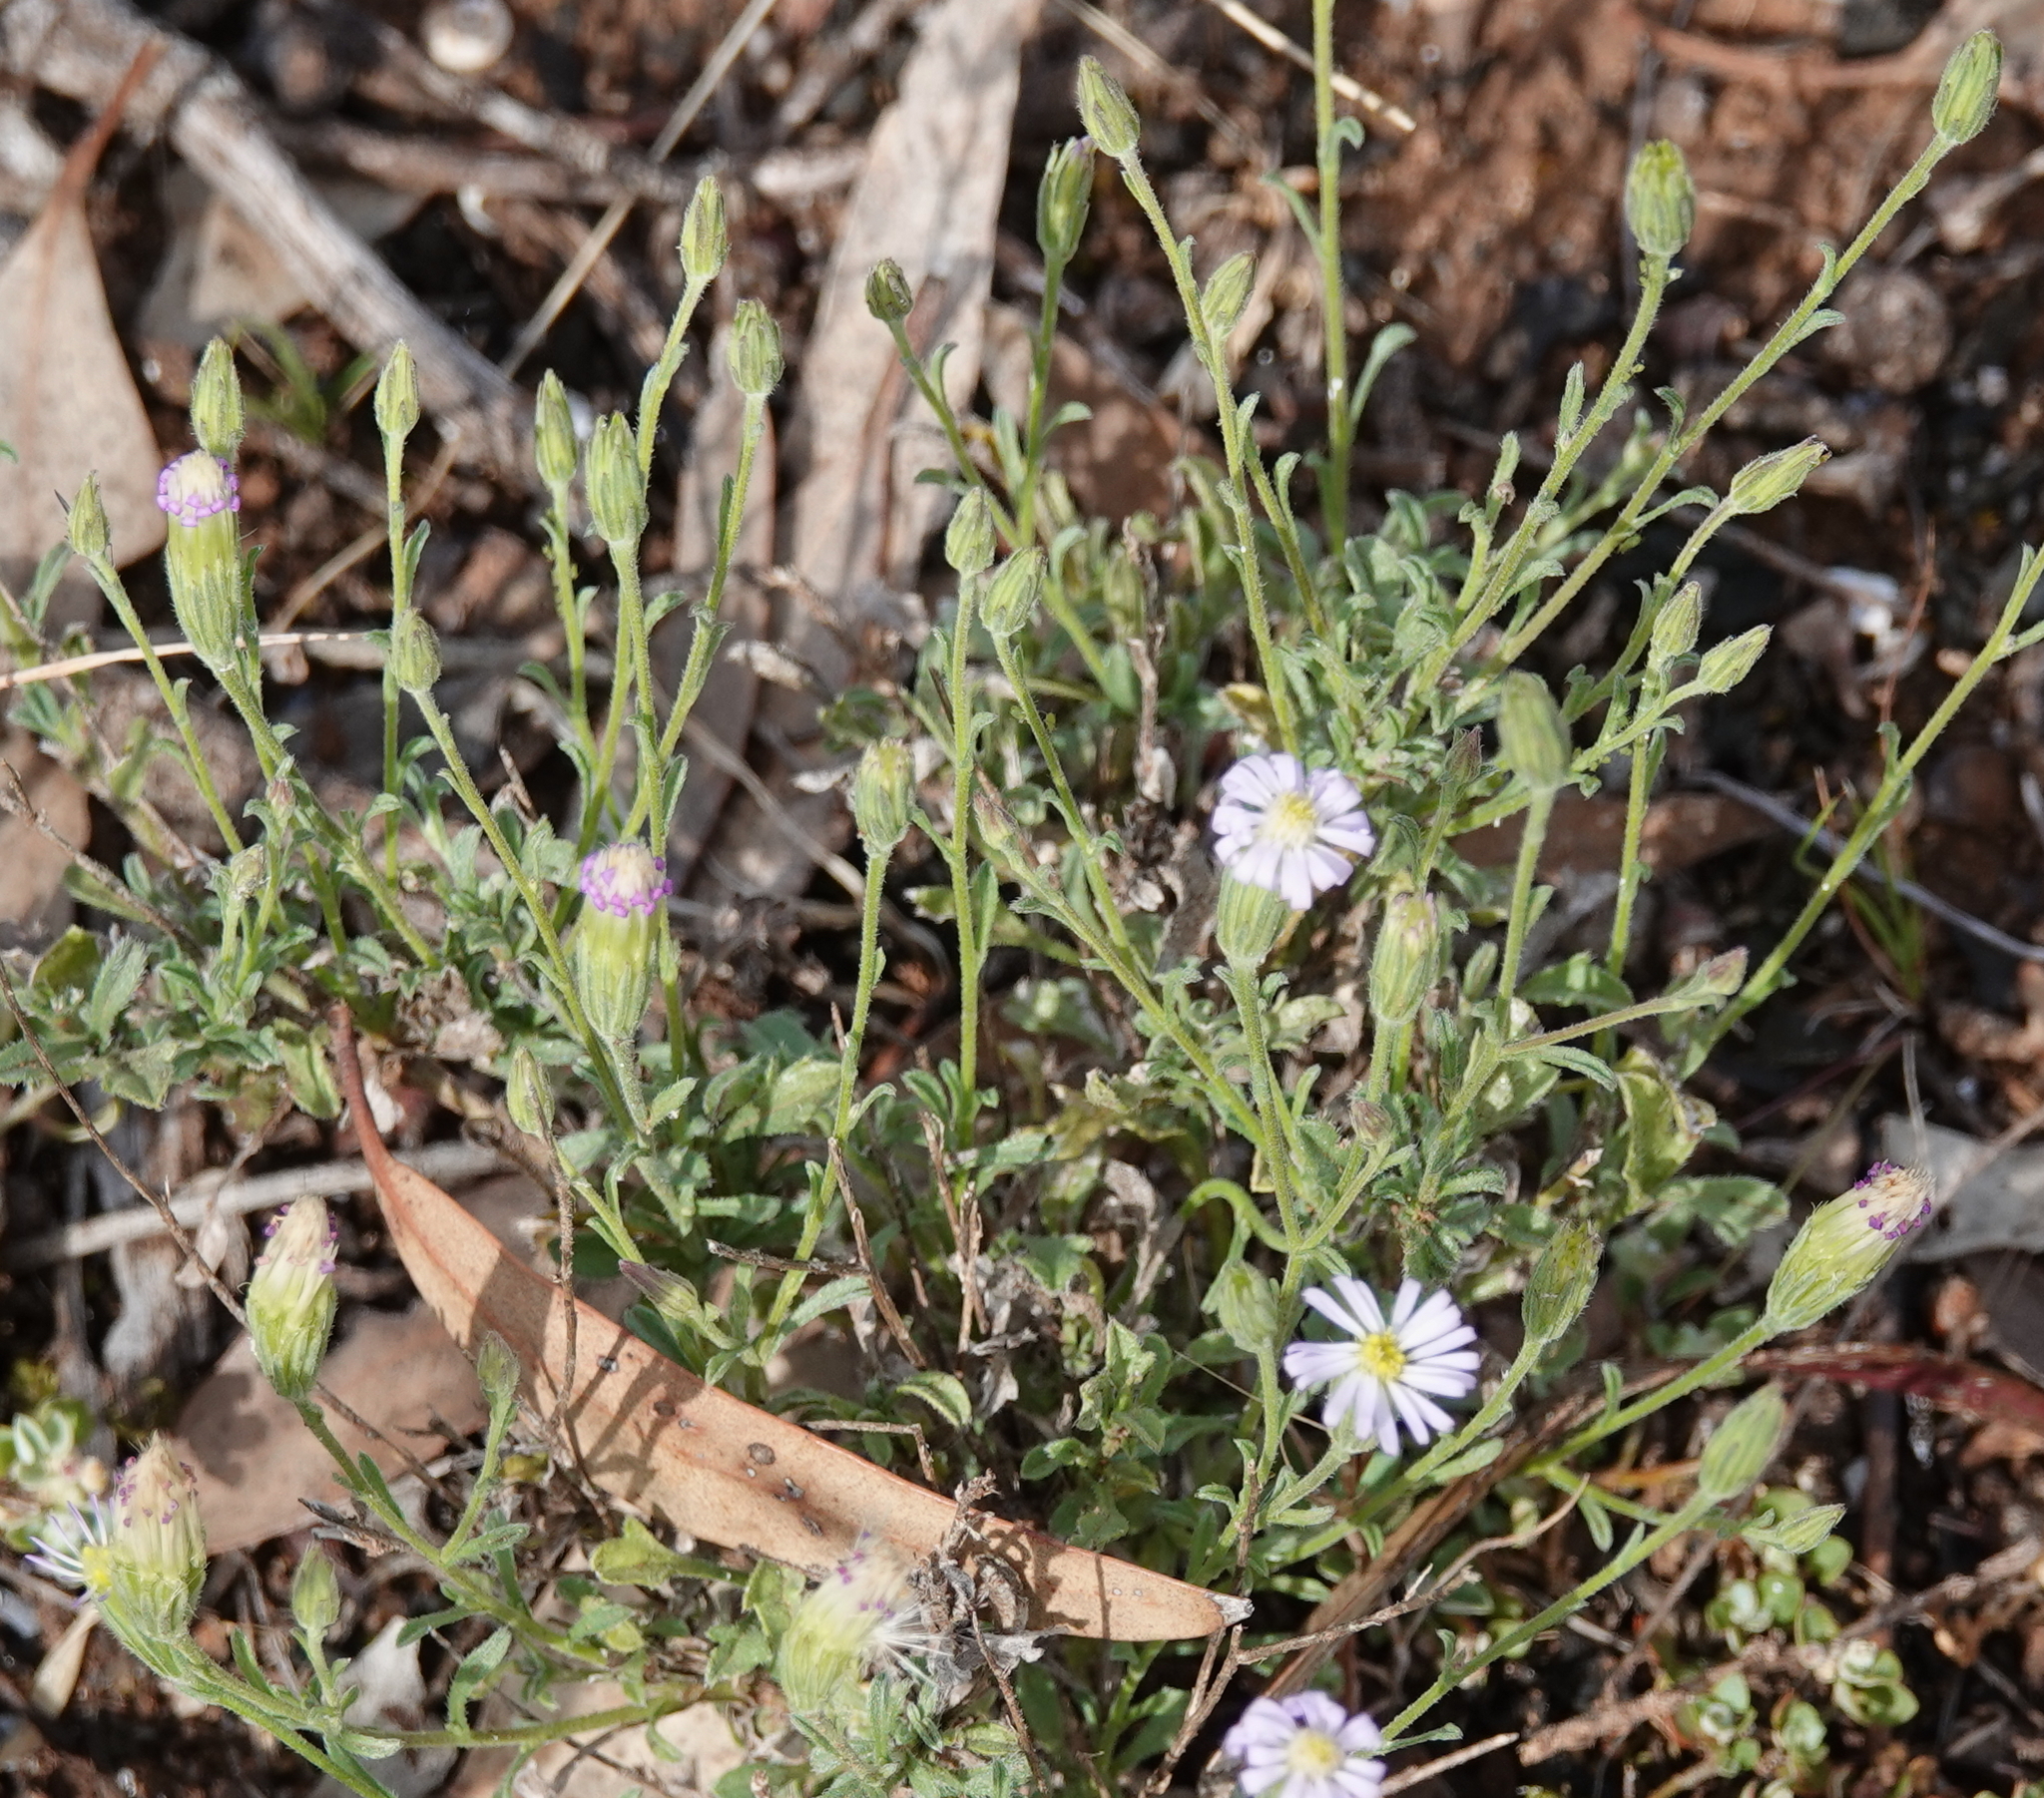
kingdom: Plantae
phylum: Tracheophyta
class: Magnoliopsida
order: Asterales
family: Asteraceae
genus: Vittadinia
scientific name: Vittadinia gracilis
